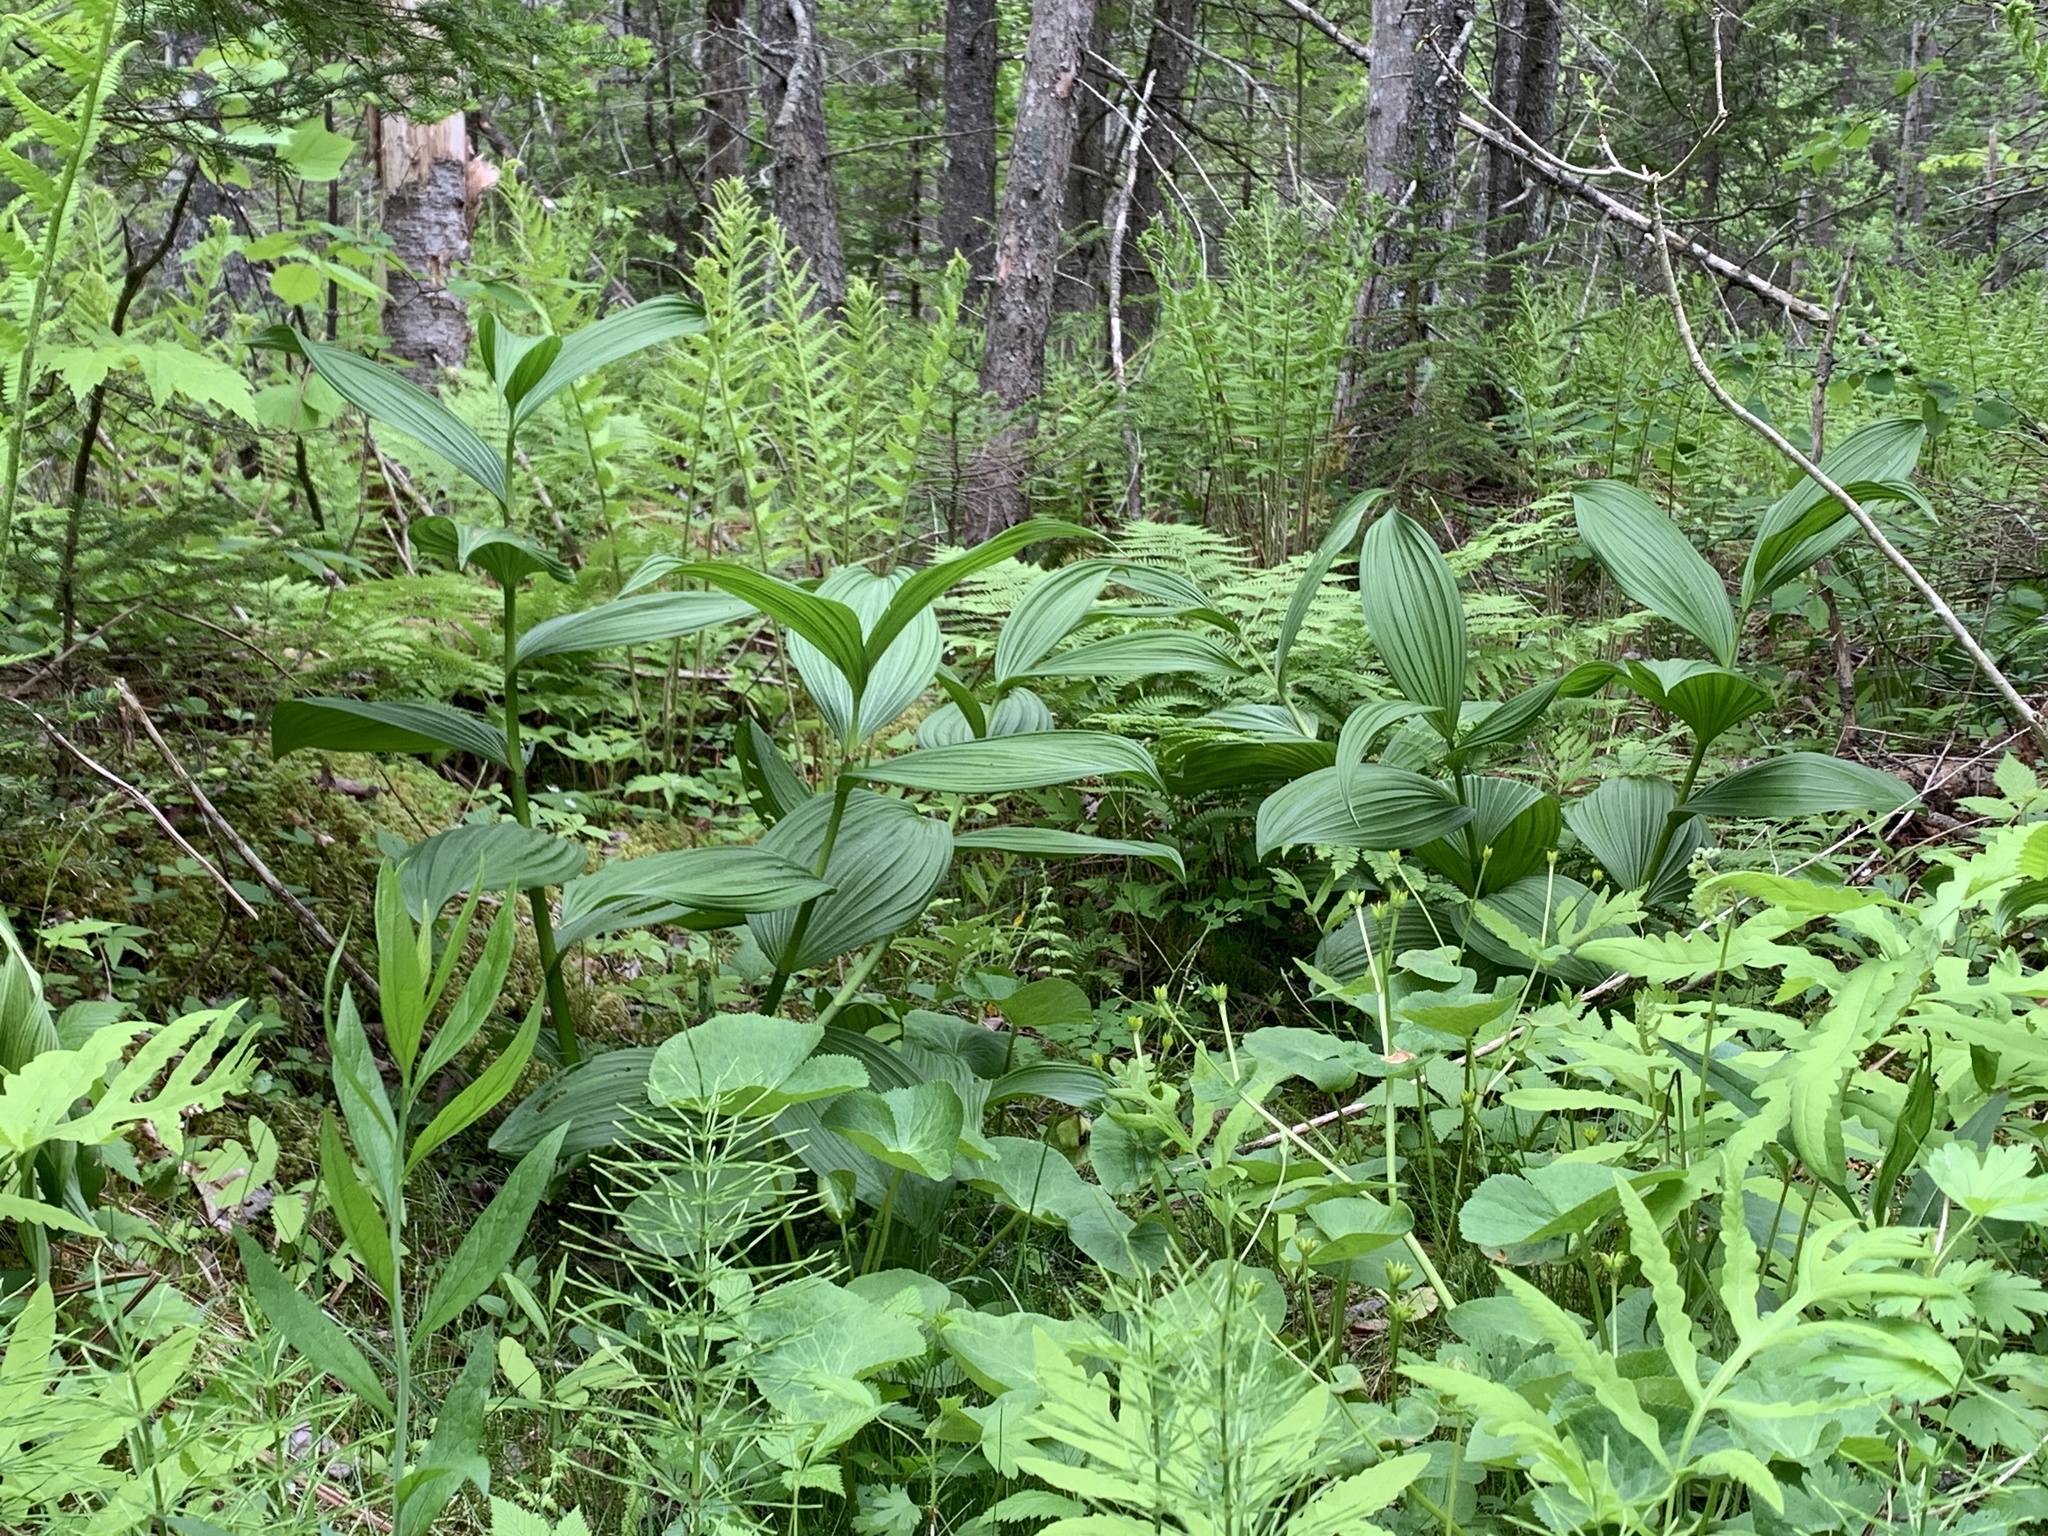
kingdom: Plantae
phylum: Tracheophyta
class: Liliopsida
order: Liliales
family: Melanthiaceae
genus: Veratrum
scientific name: Veratrum viride
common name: American false hellebore
